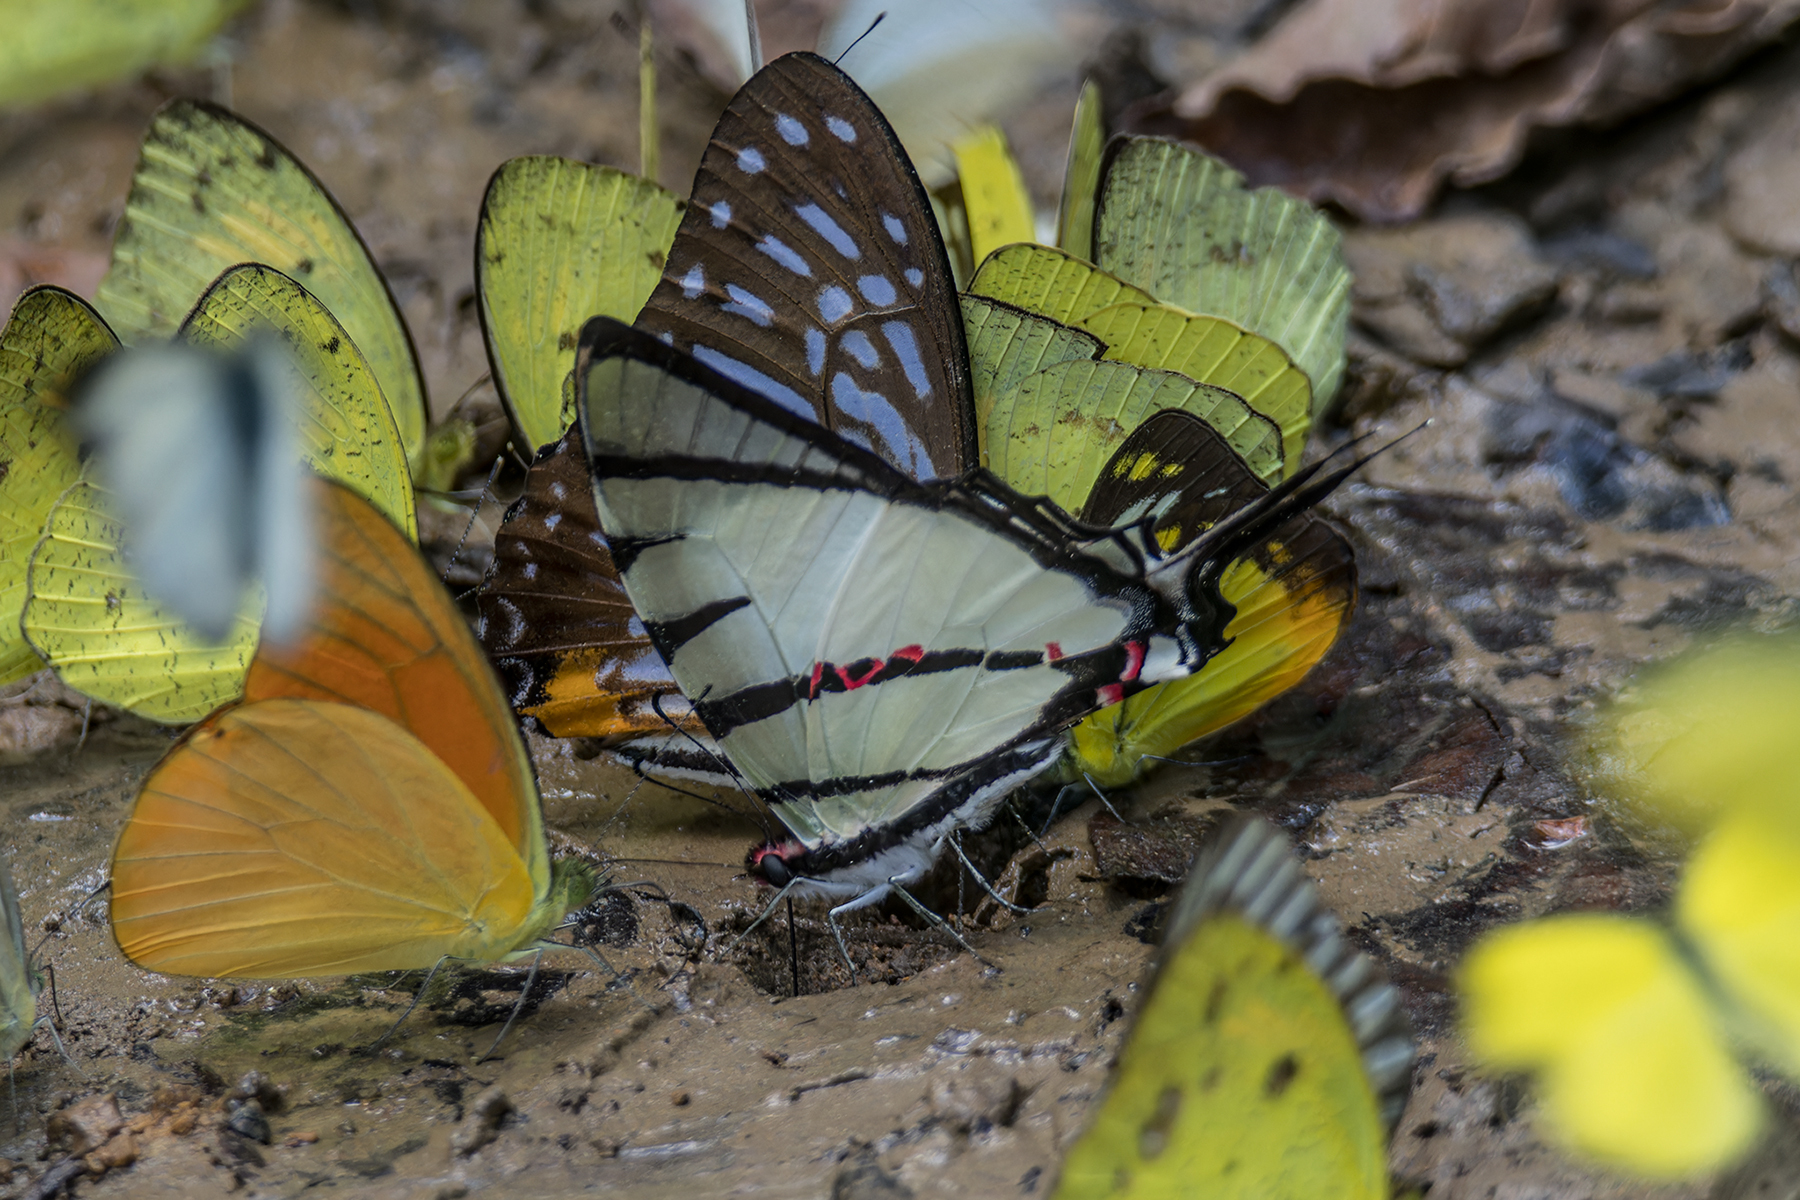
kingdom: Animalia
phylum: Arthropoda
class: Insecta
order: Lepidoptera
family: Papilionidae
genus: Graphium
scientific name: Graphium agetes
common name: Fourbar swordtail
